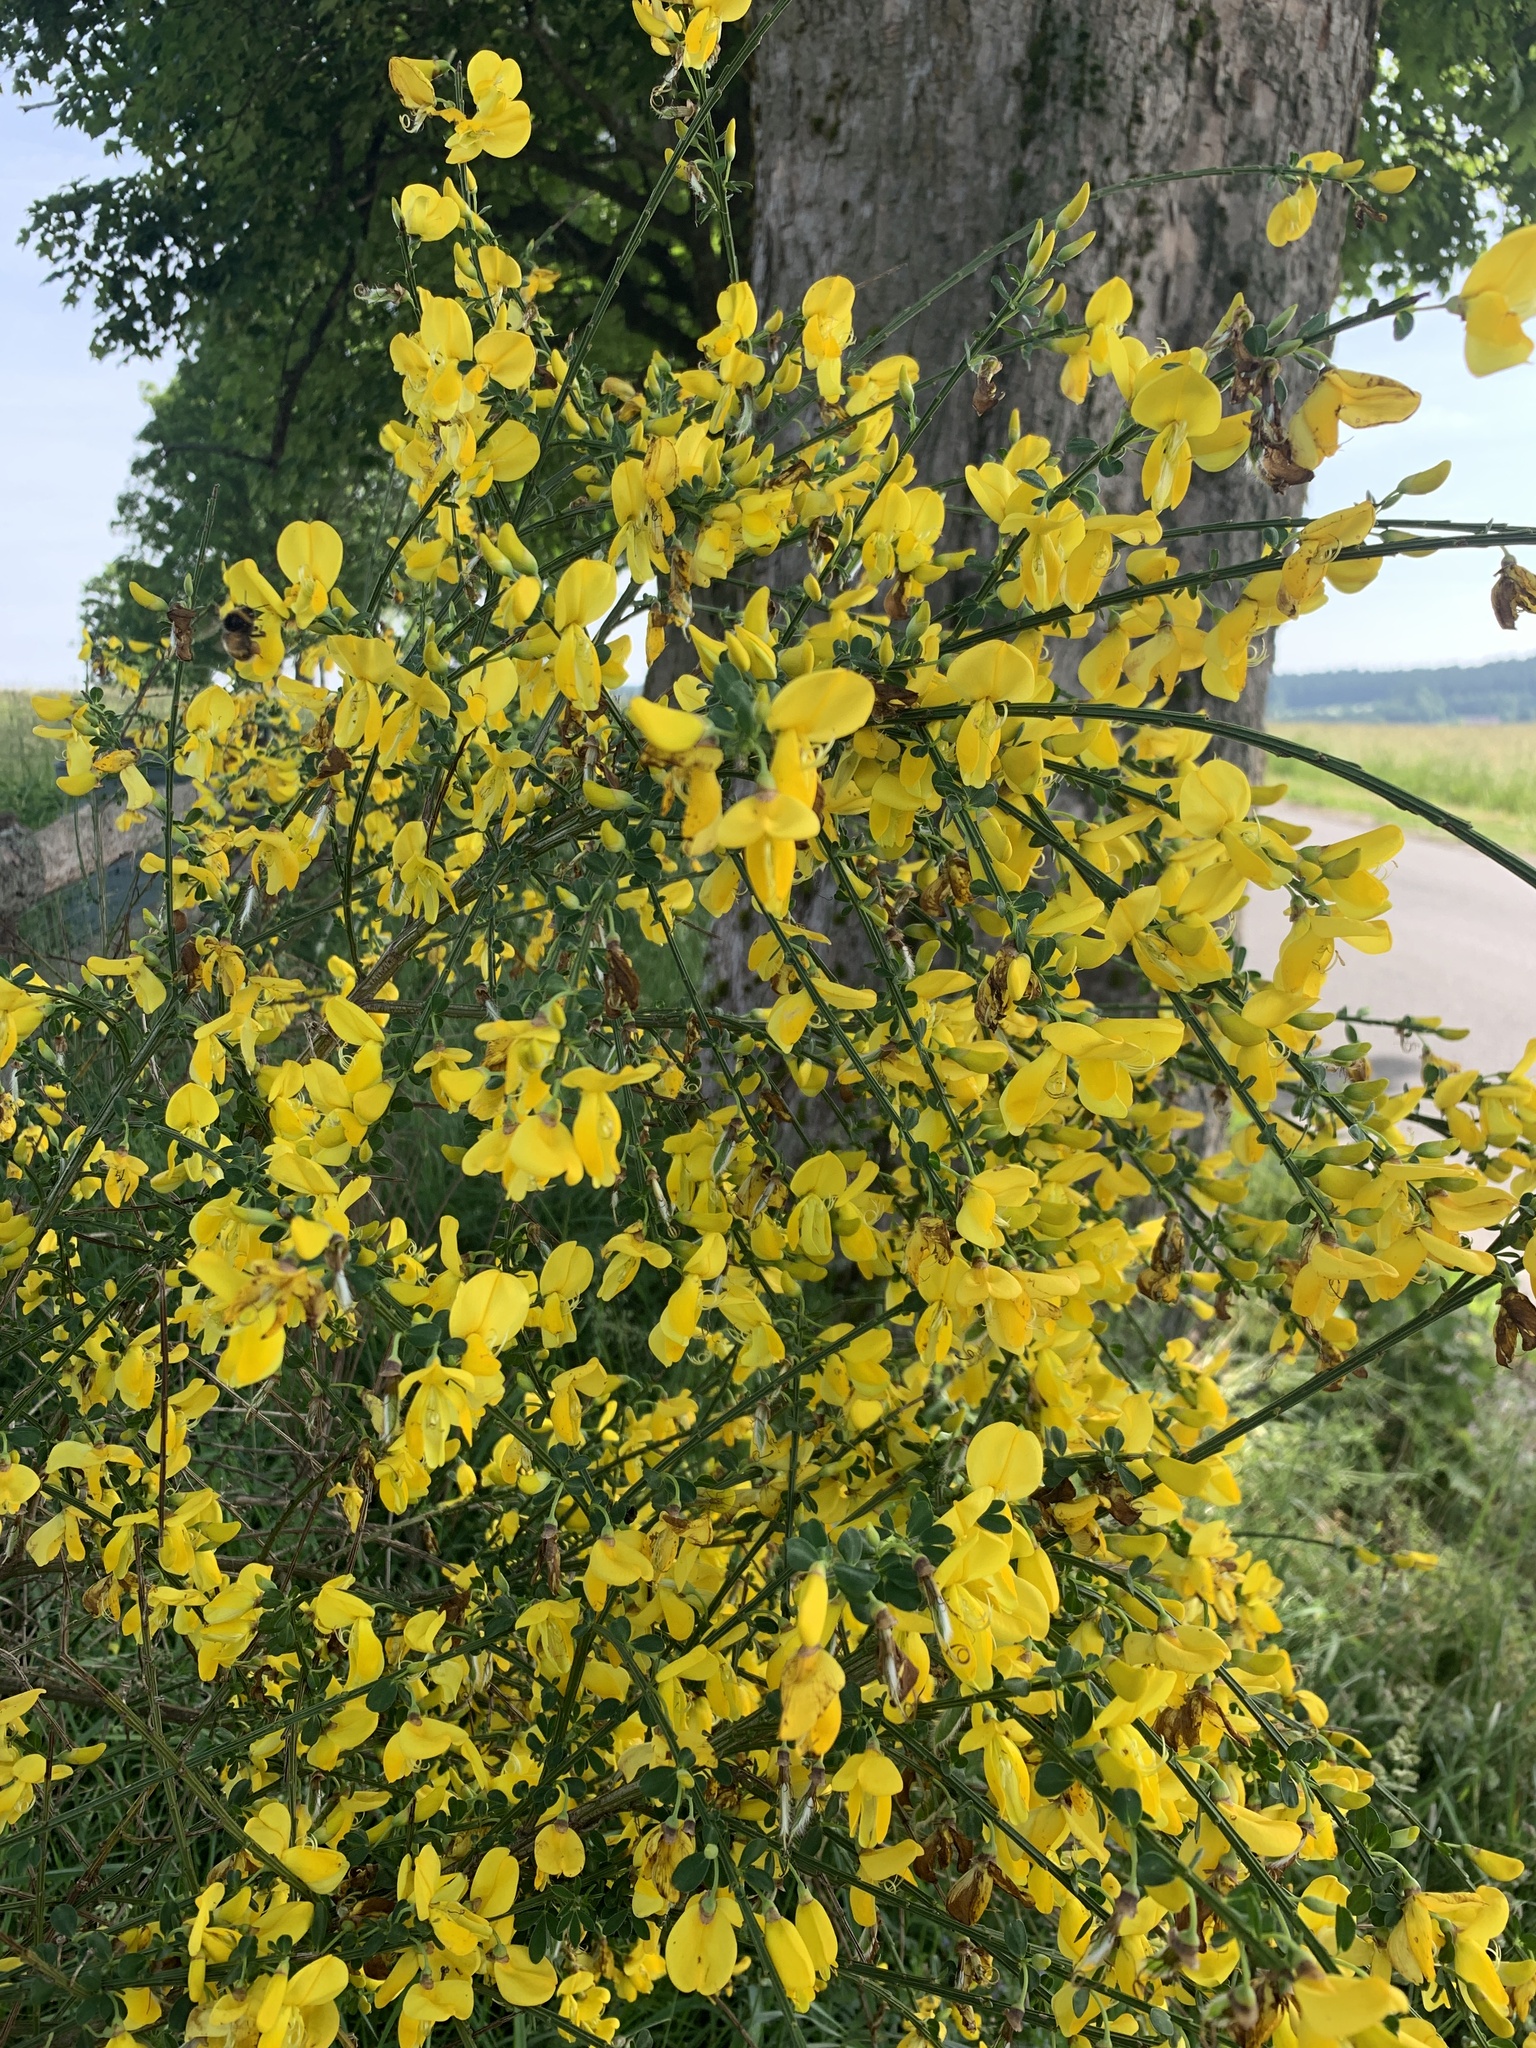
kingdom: Plantae
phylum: Tracheophyta
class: Magnoliopsida
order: Fabales
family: Fabaceae
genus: Cytisus
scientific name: Cytisus scoparius
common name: Scotch broom
